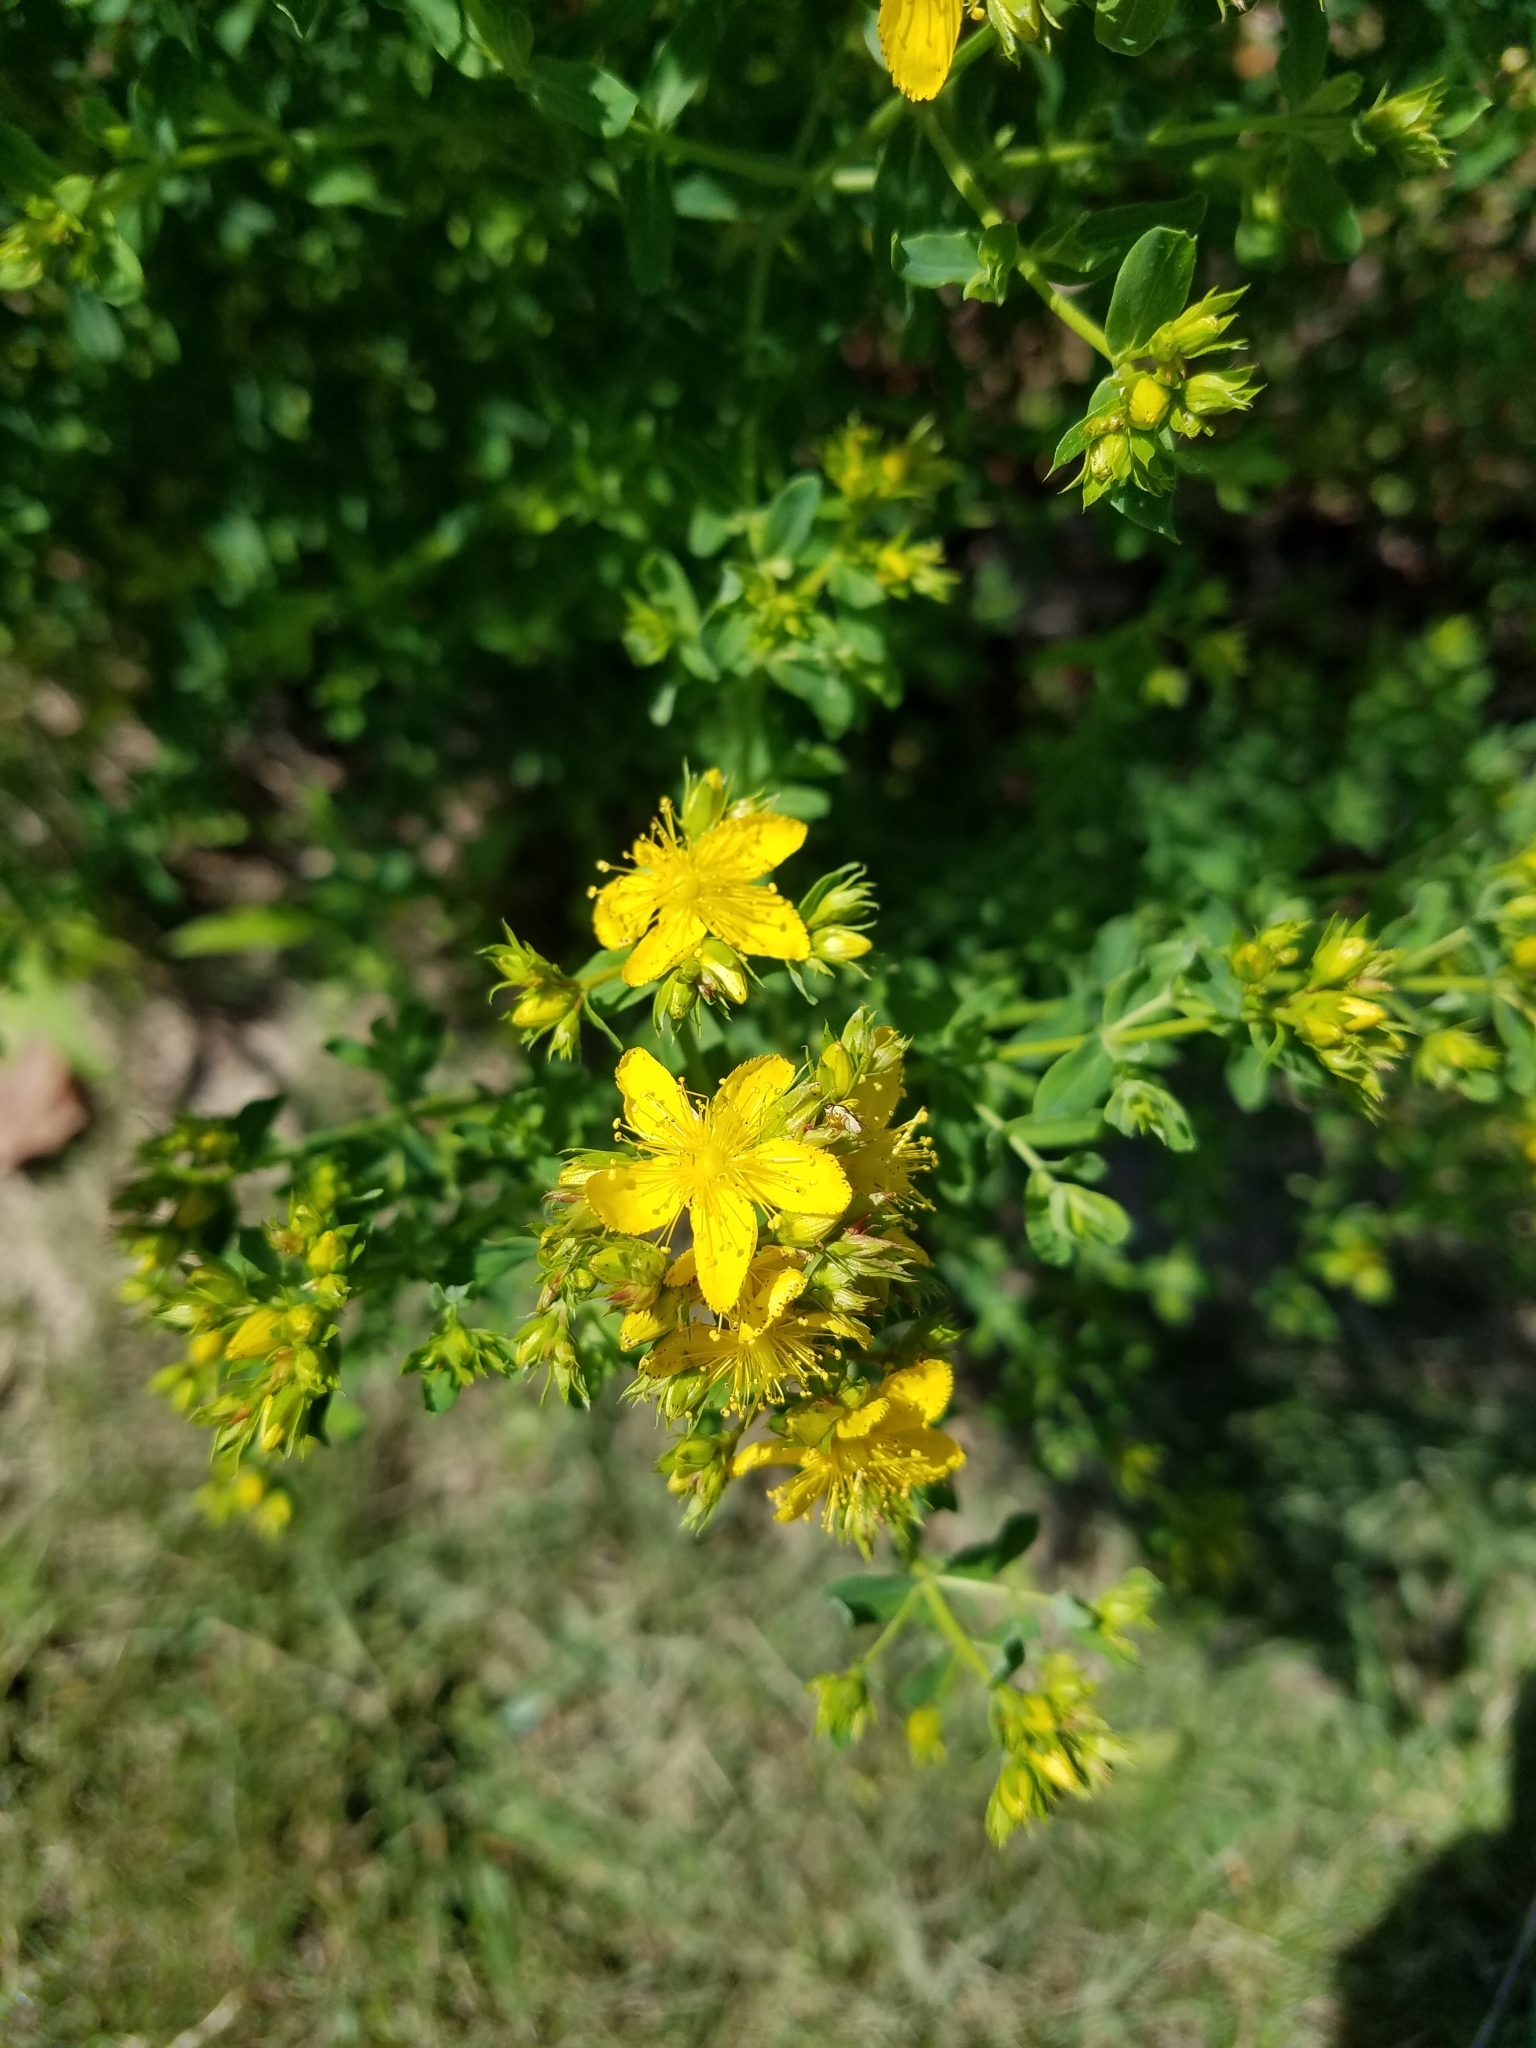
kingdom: Plantae
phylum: Tracheophyta
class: Magnoliopsida
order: Malpighiales
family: Hypericaceae
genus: Hypericum
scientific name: Hypericum perforatum
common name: Common st. johnswort
